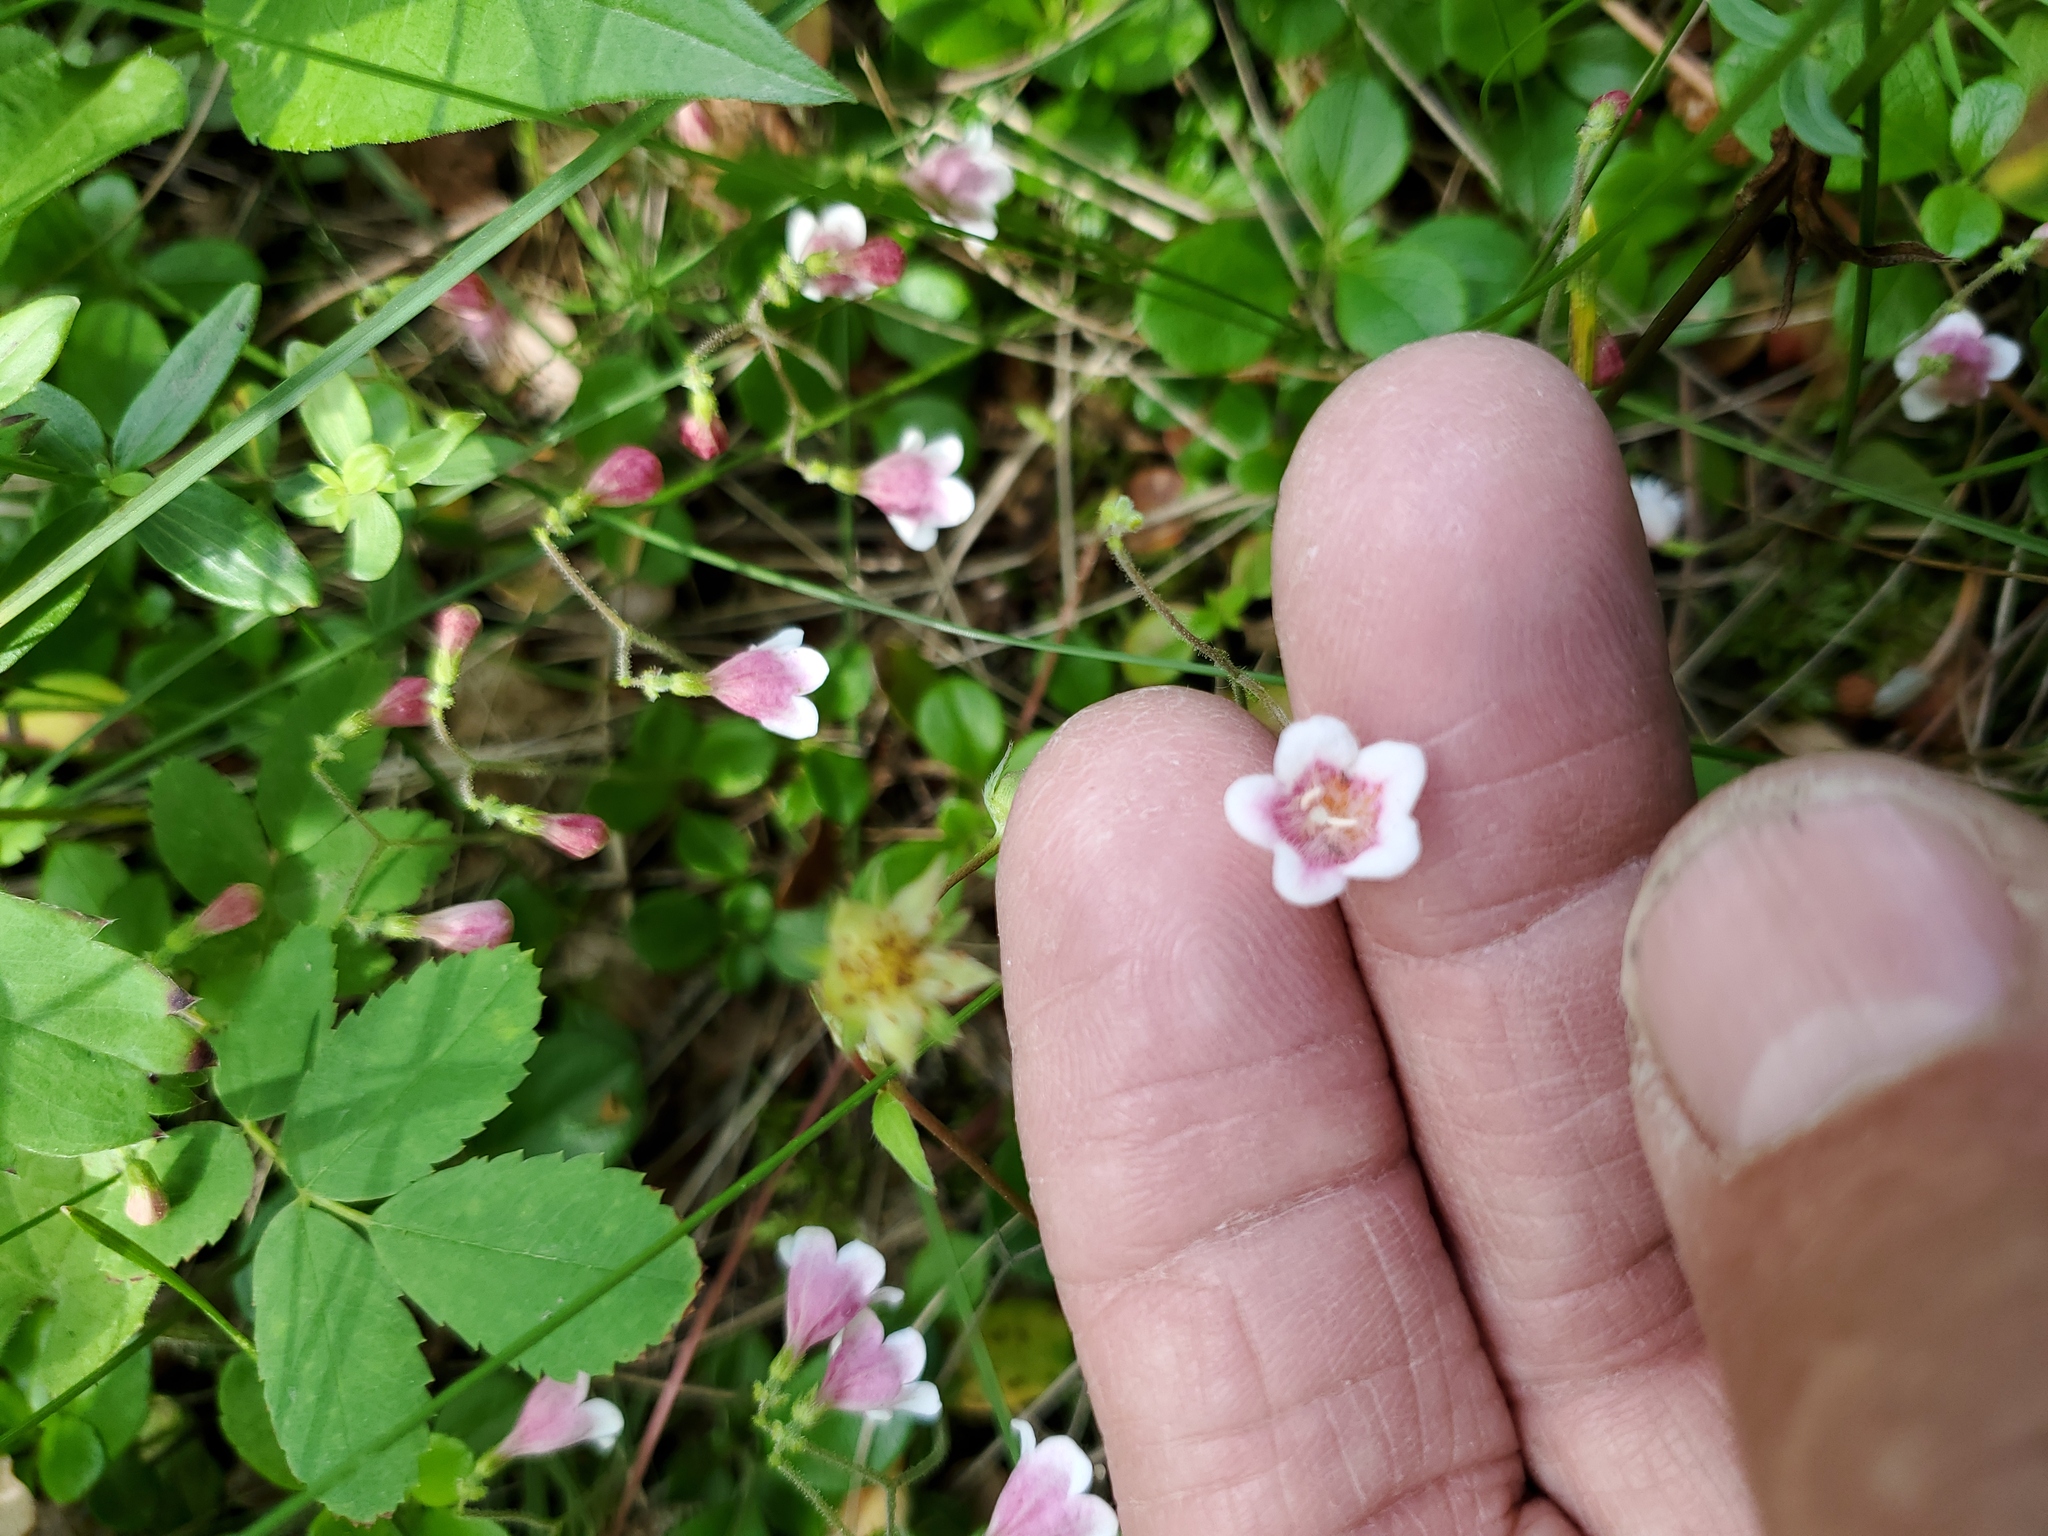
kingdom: Plantae
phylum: Tracheophyta
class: Magnoliopsida
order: Dipsacales
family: Caprifoliaceae
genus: Linnaea
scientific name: Linnaea borealis
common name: Twinflower
